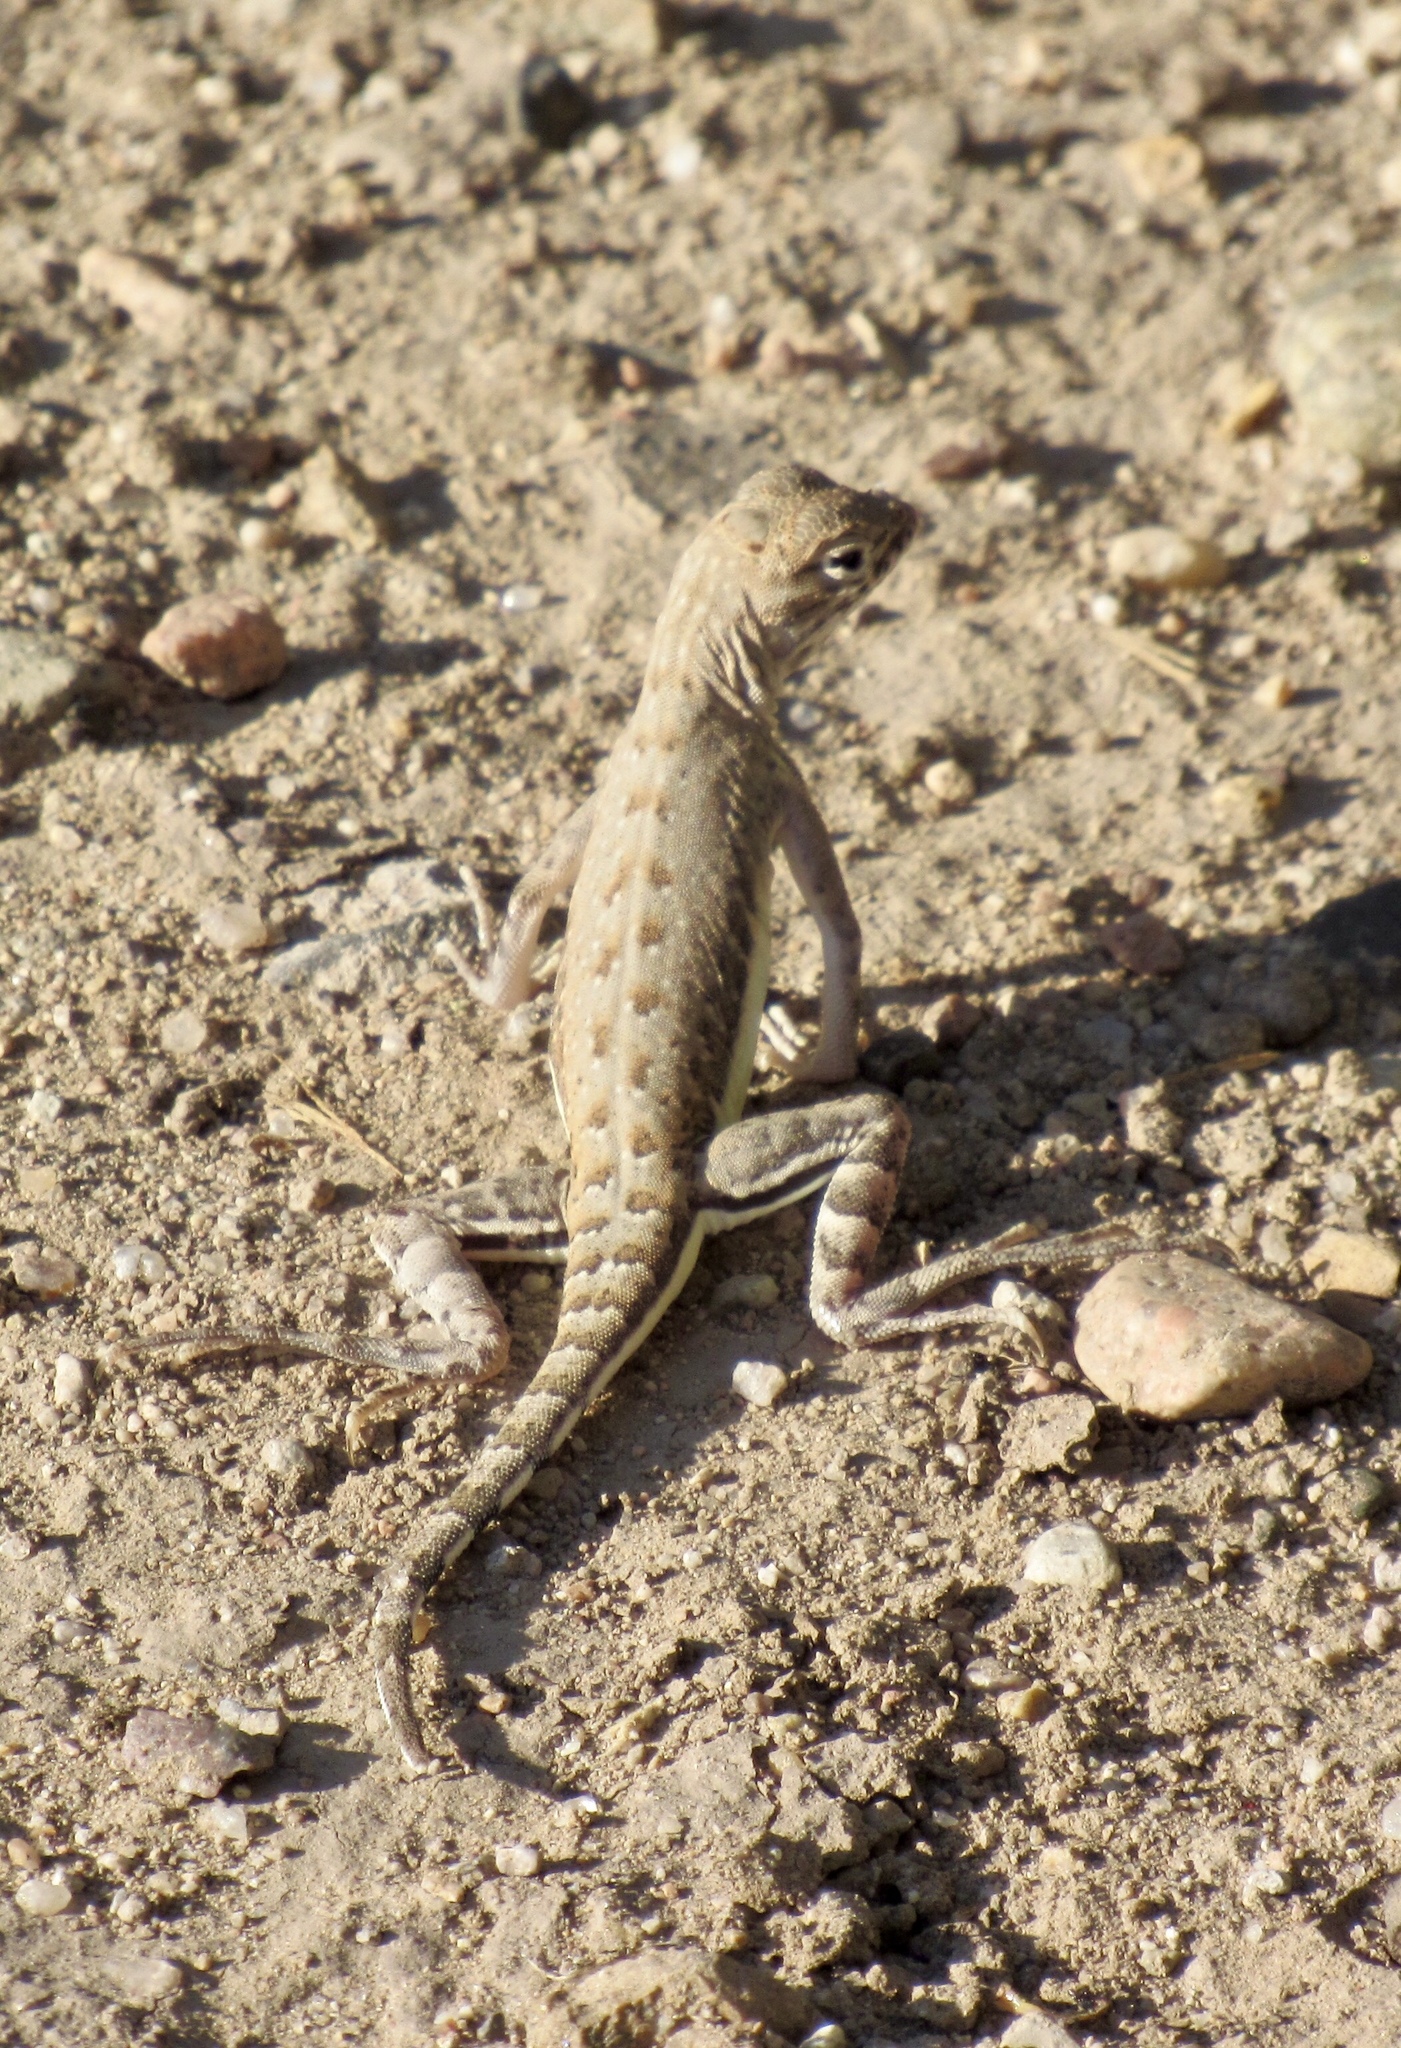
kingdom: Animalia
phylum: Chordata
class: Squamata
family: Phrynosomatidae
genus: Callisaurus
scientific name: Callisaurus draconoides
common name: Zebra-tailed lizard
